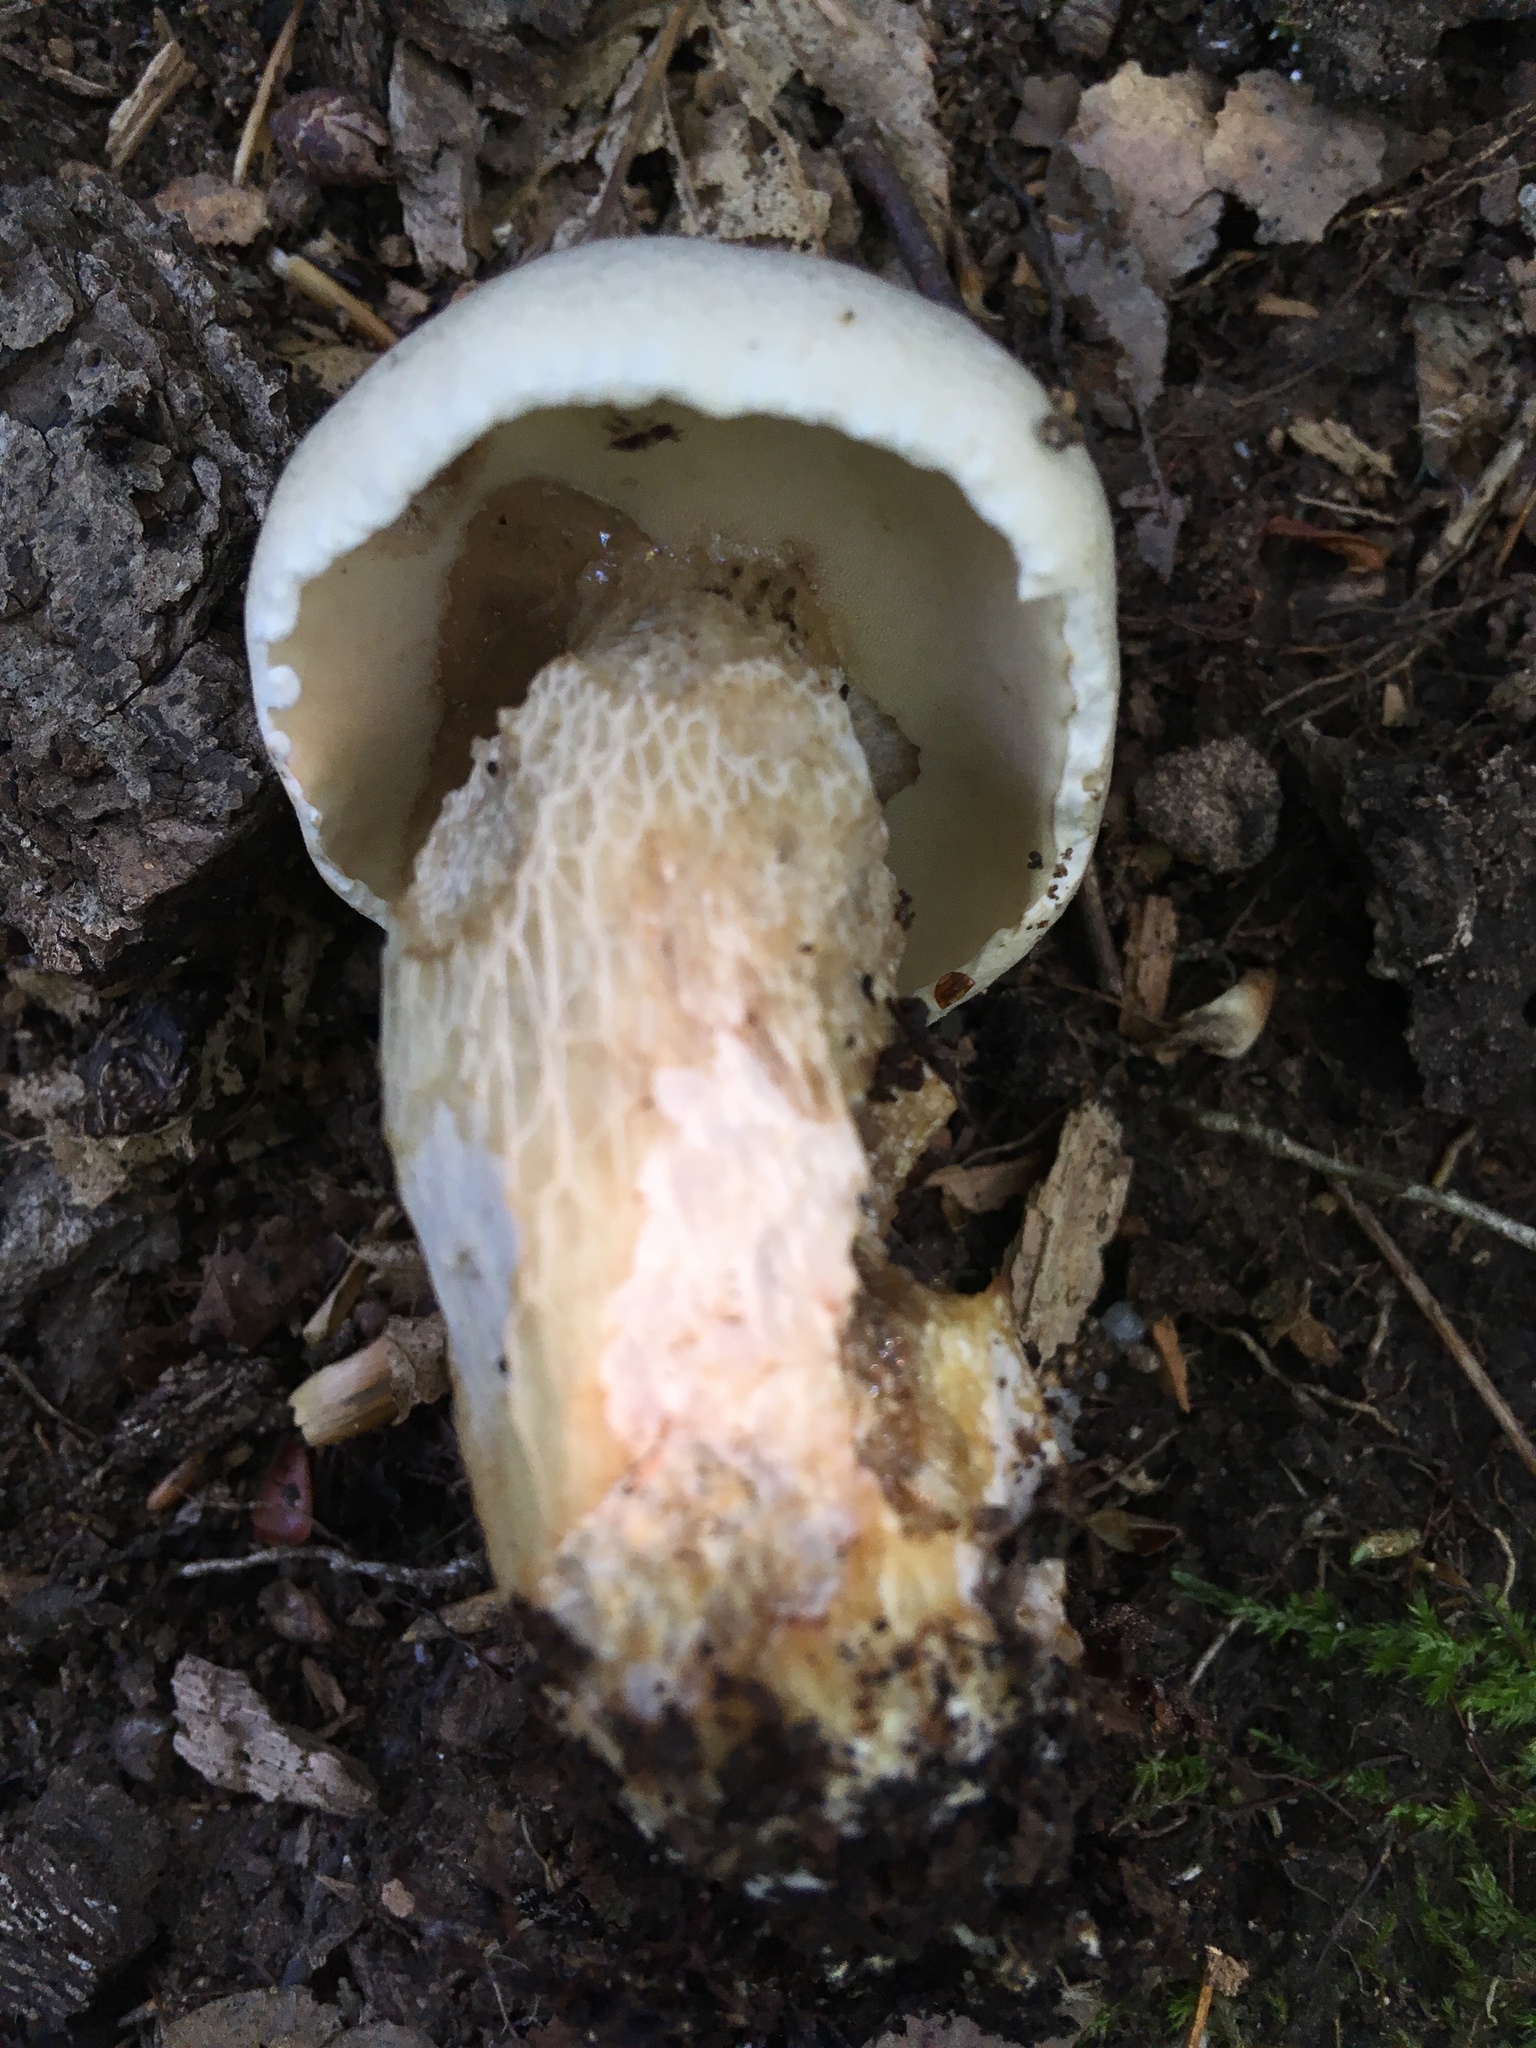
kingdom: Fungi
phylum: Basidiomycota
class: Agaricomycetes
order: Boletales
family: Boletaceae
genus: Retiboletus
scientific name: Retiboletus griseus
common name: Grey bolete
